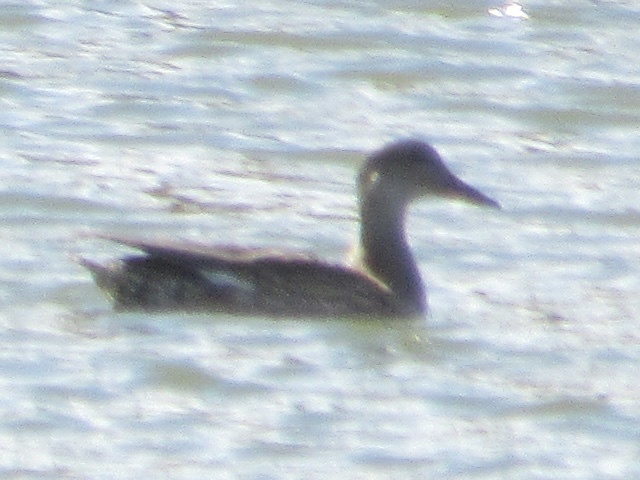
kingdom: Animalia
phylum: Chordata
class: Aves
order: Anseriformes
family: Anatidae
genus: Mareca
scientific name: Mareca strepera
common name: Gadwall
